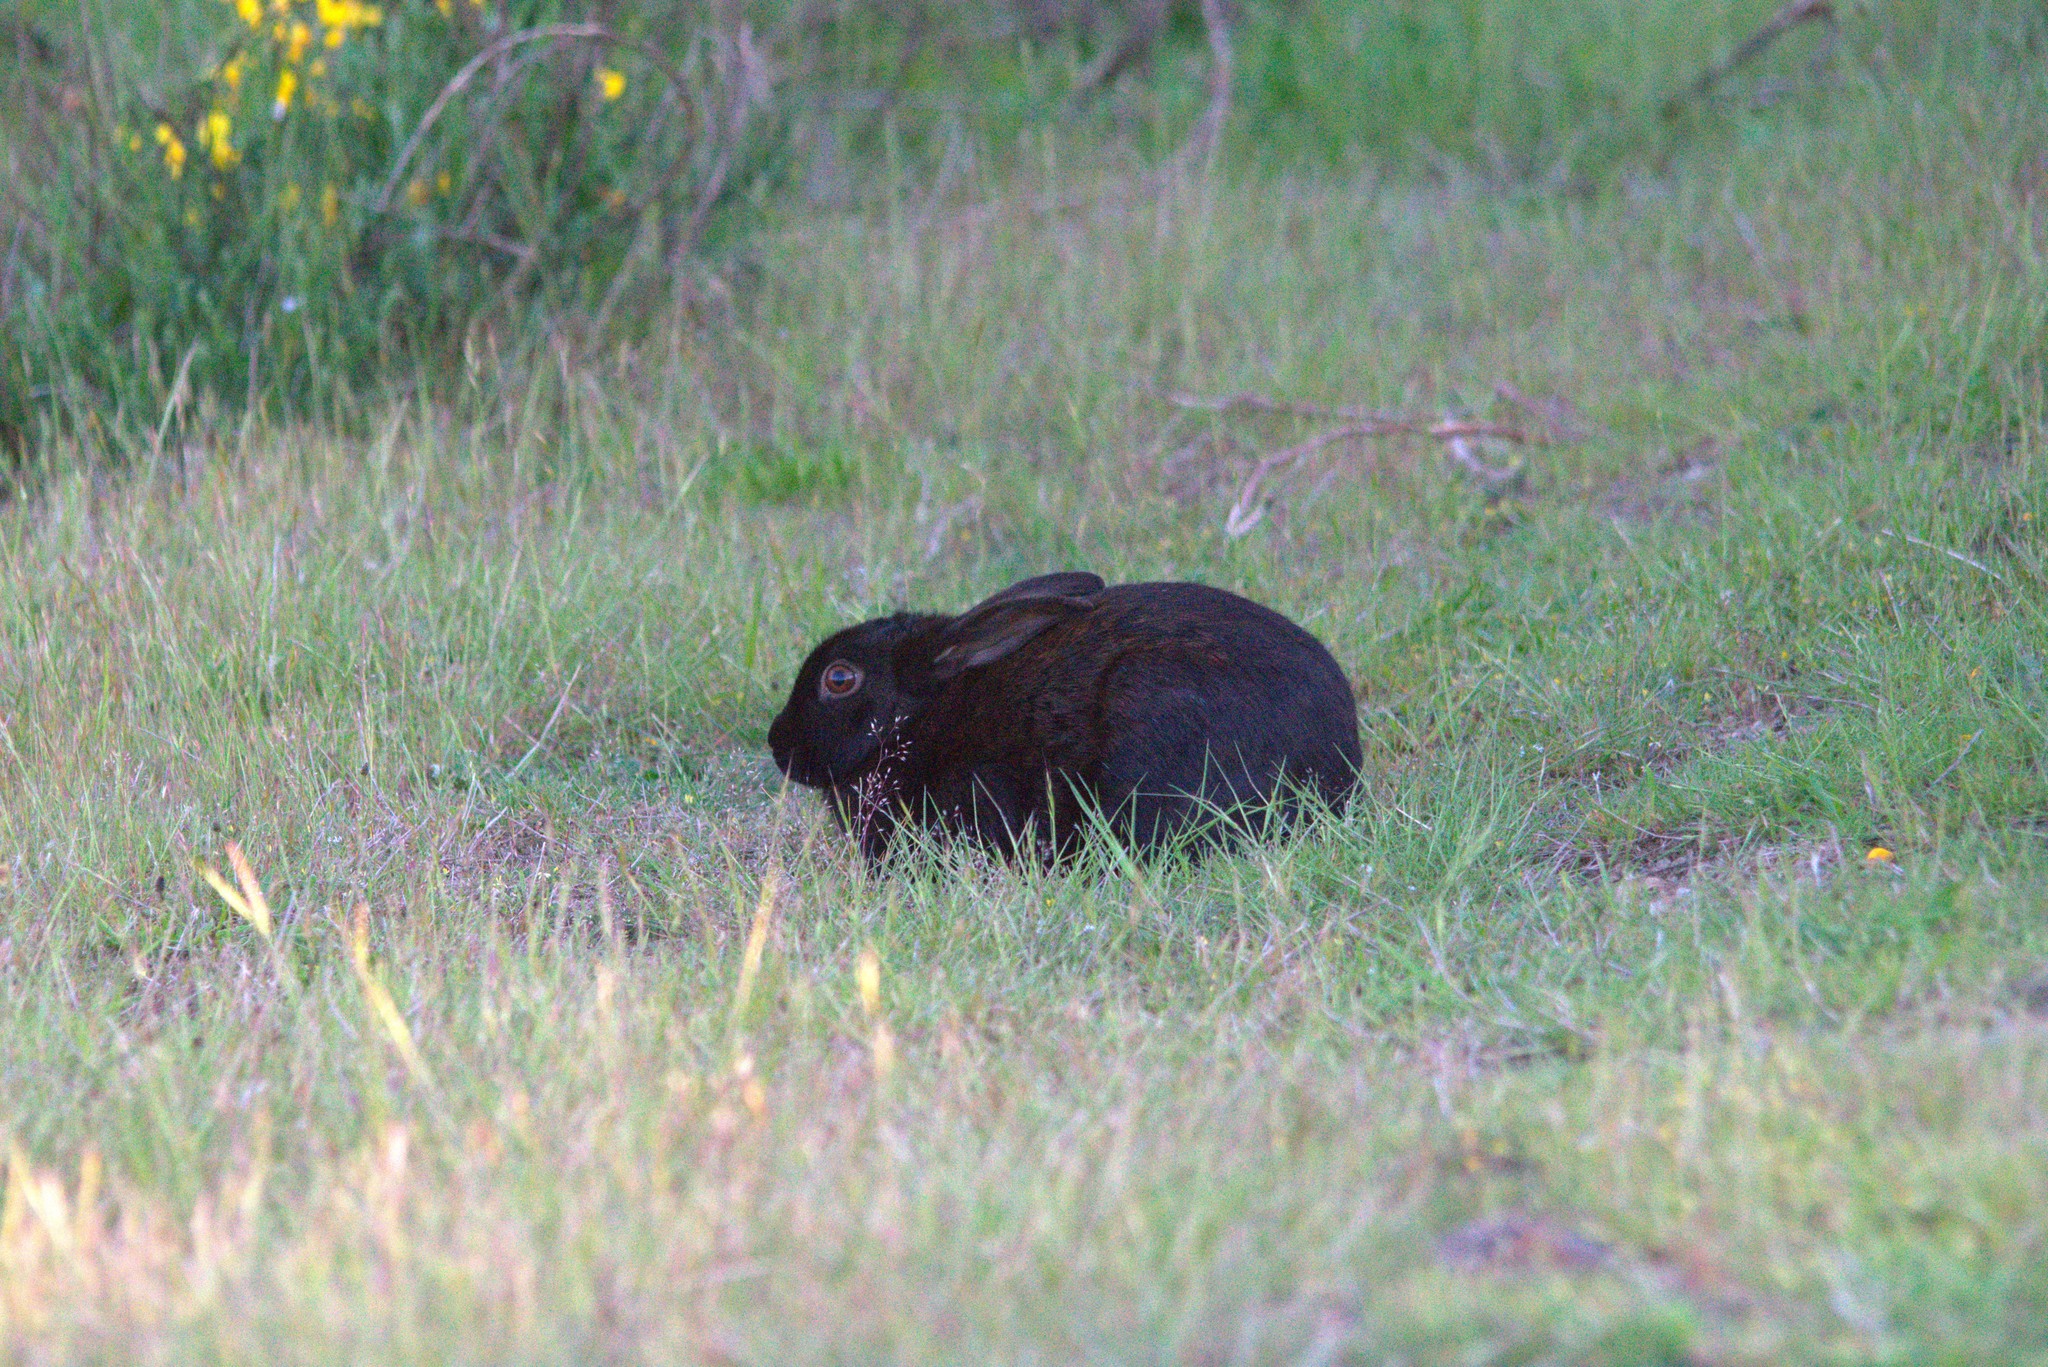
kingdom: Animalia
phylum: Chordata
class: Mammalia
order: Lagomorpha
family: Leporidae
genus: Oryctolagus
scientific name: Oryctolagus cuniculus
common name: European rabbit
